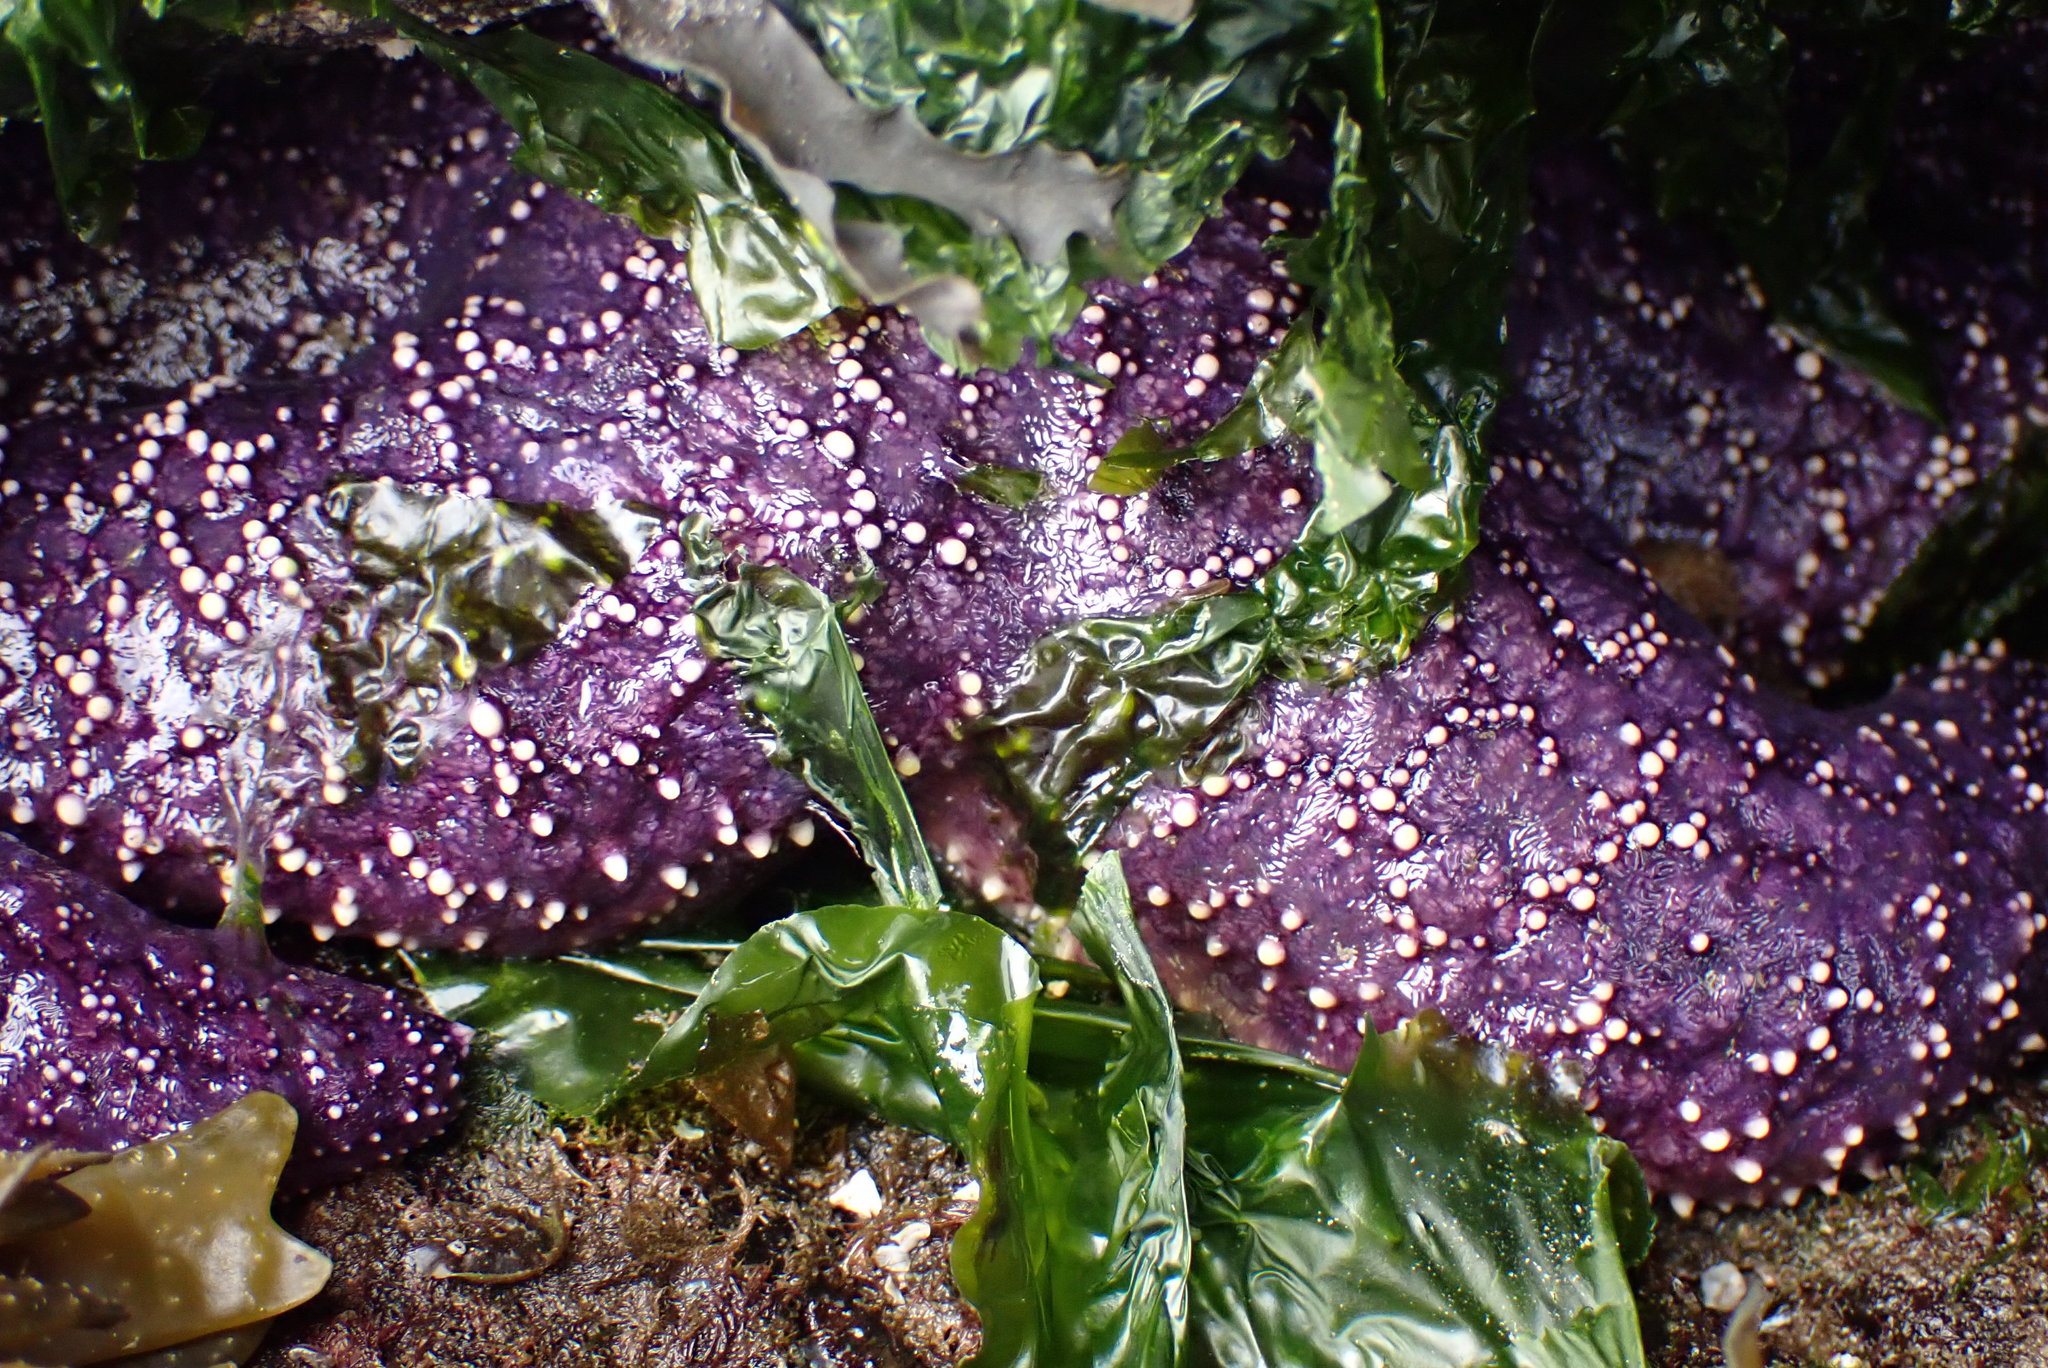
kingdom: Animalia
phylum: Echinodermata
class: Asteroidea
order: Forcipulatida
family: Asteriidae
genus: Pisaster
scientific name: Pisaster ochraceus
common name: Ochre stars
